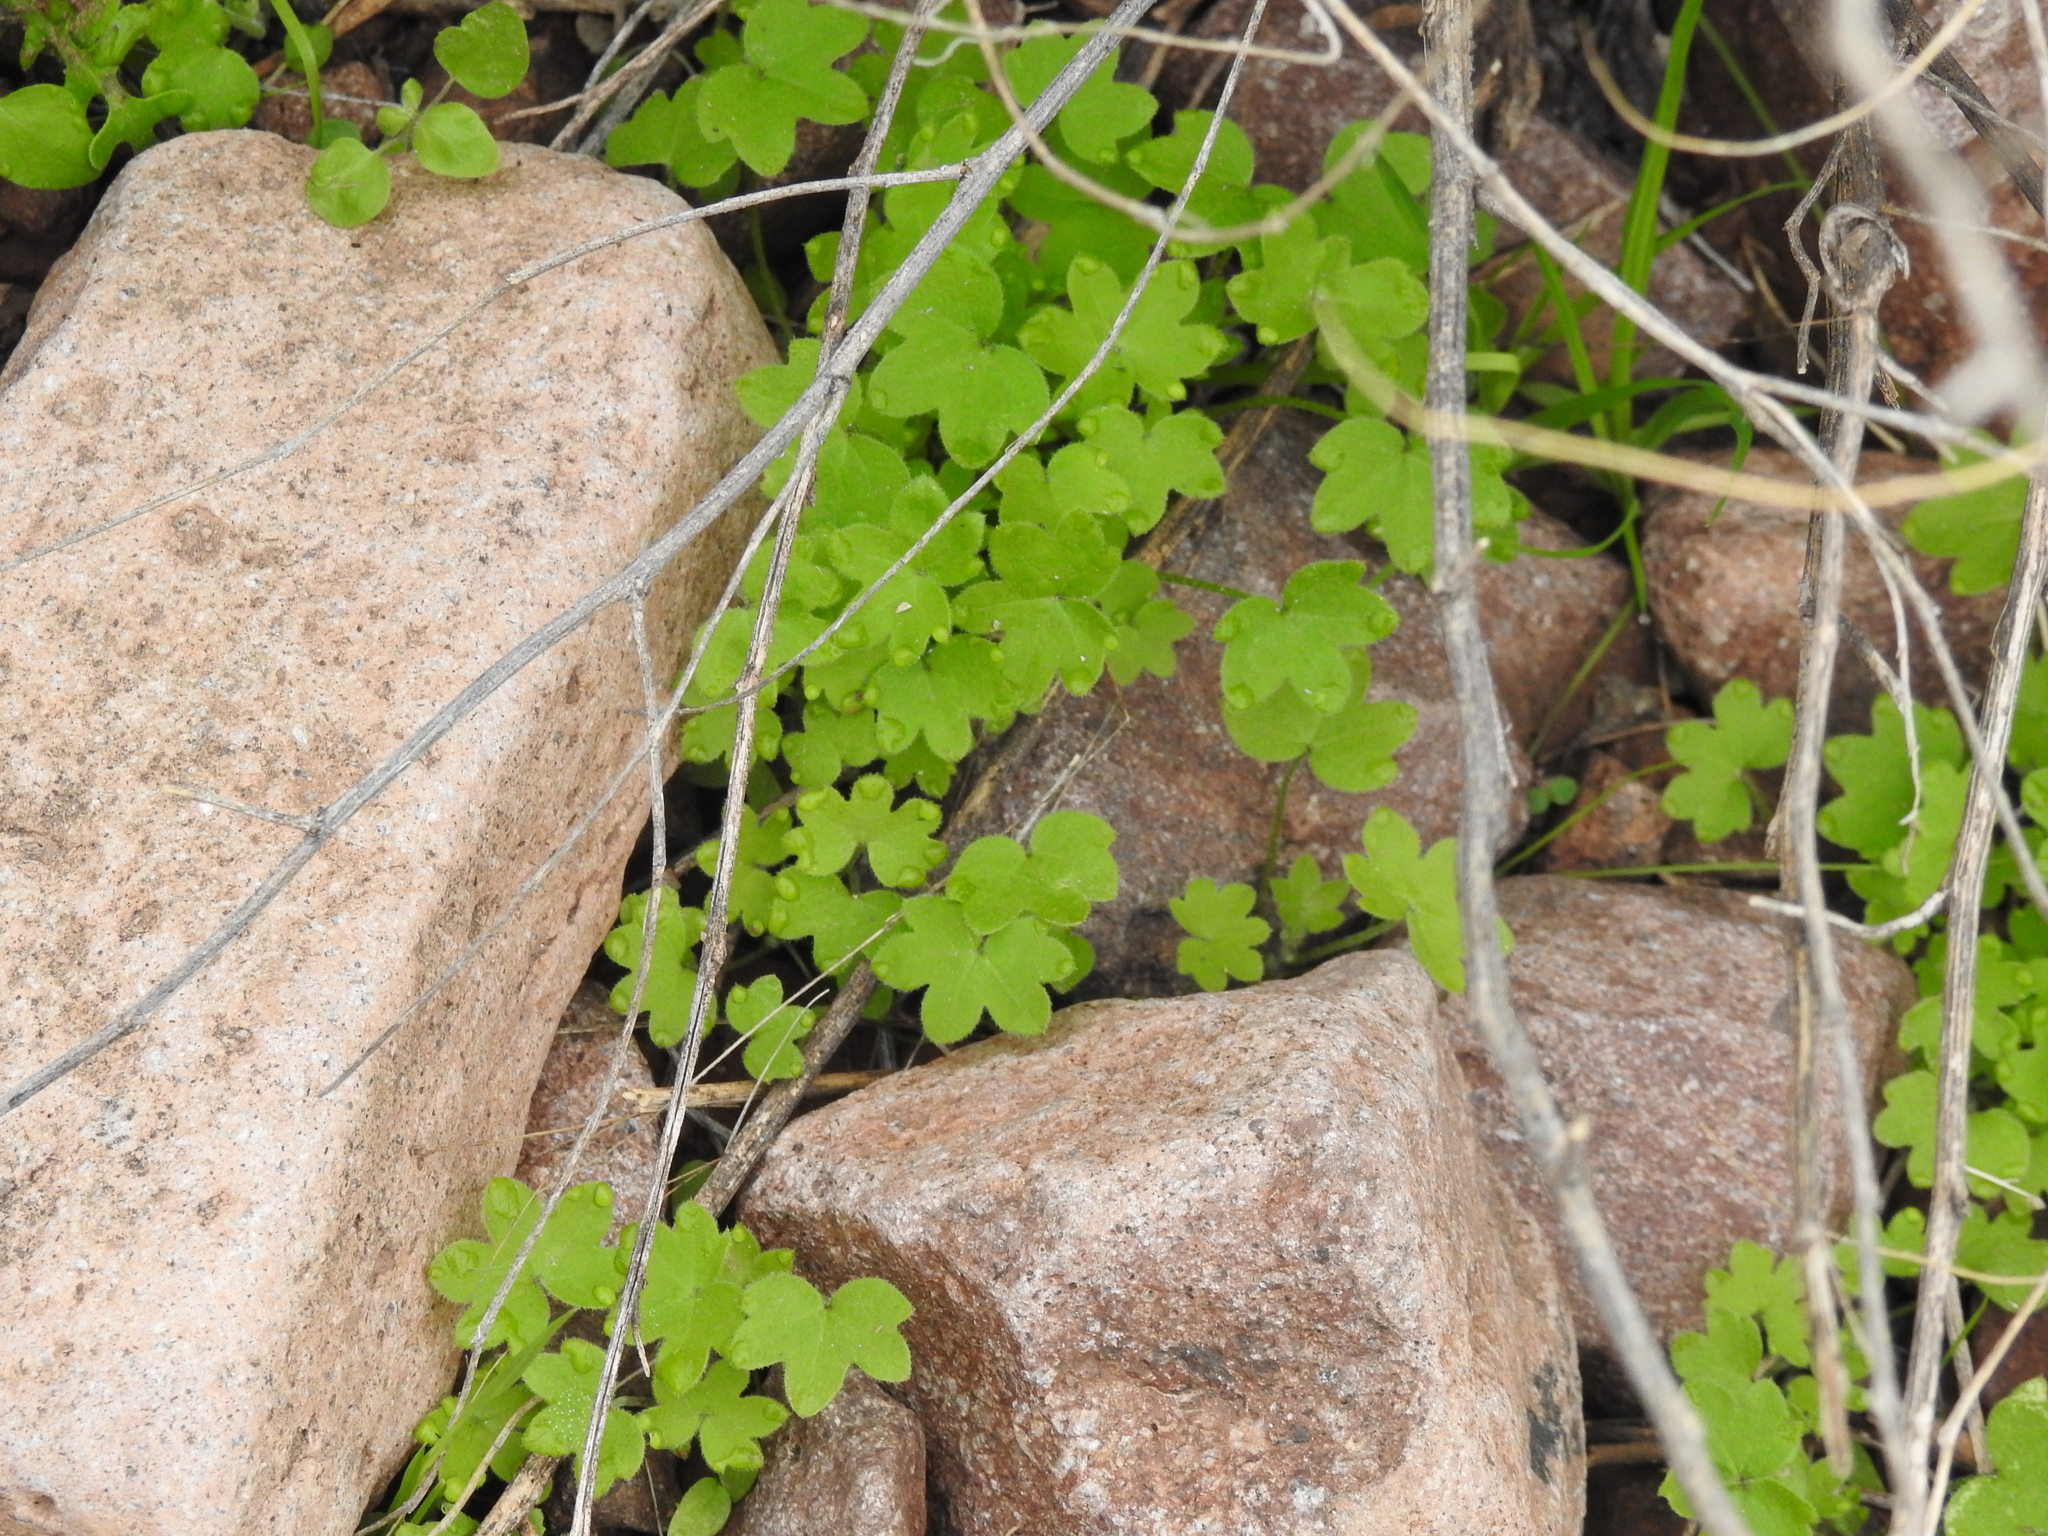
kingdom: Plantae
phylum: Tracheophyta
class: Magnoliopsida
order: Apiales
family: Apiaceae
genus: Bowlesia
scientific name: Bowlesia incana
